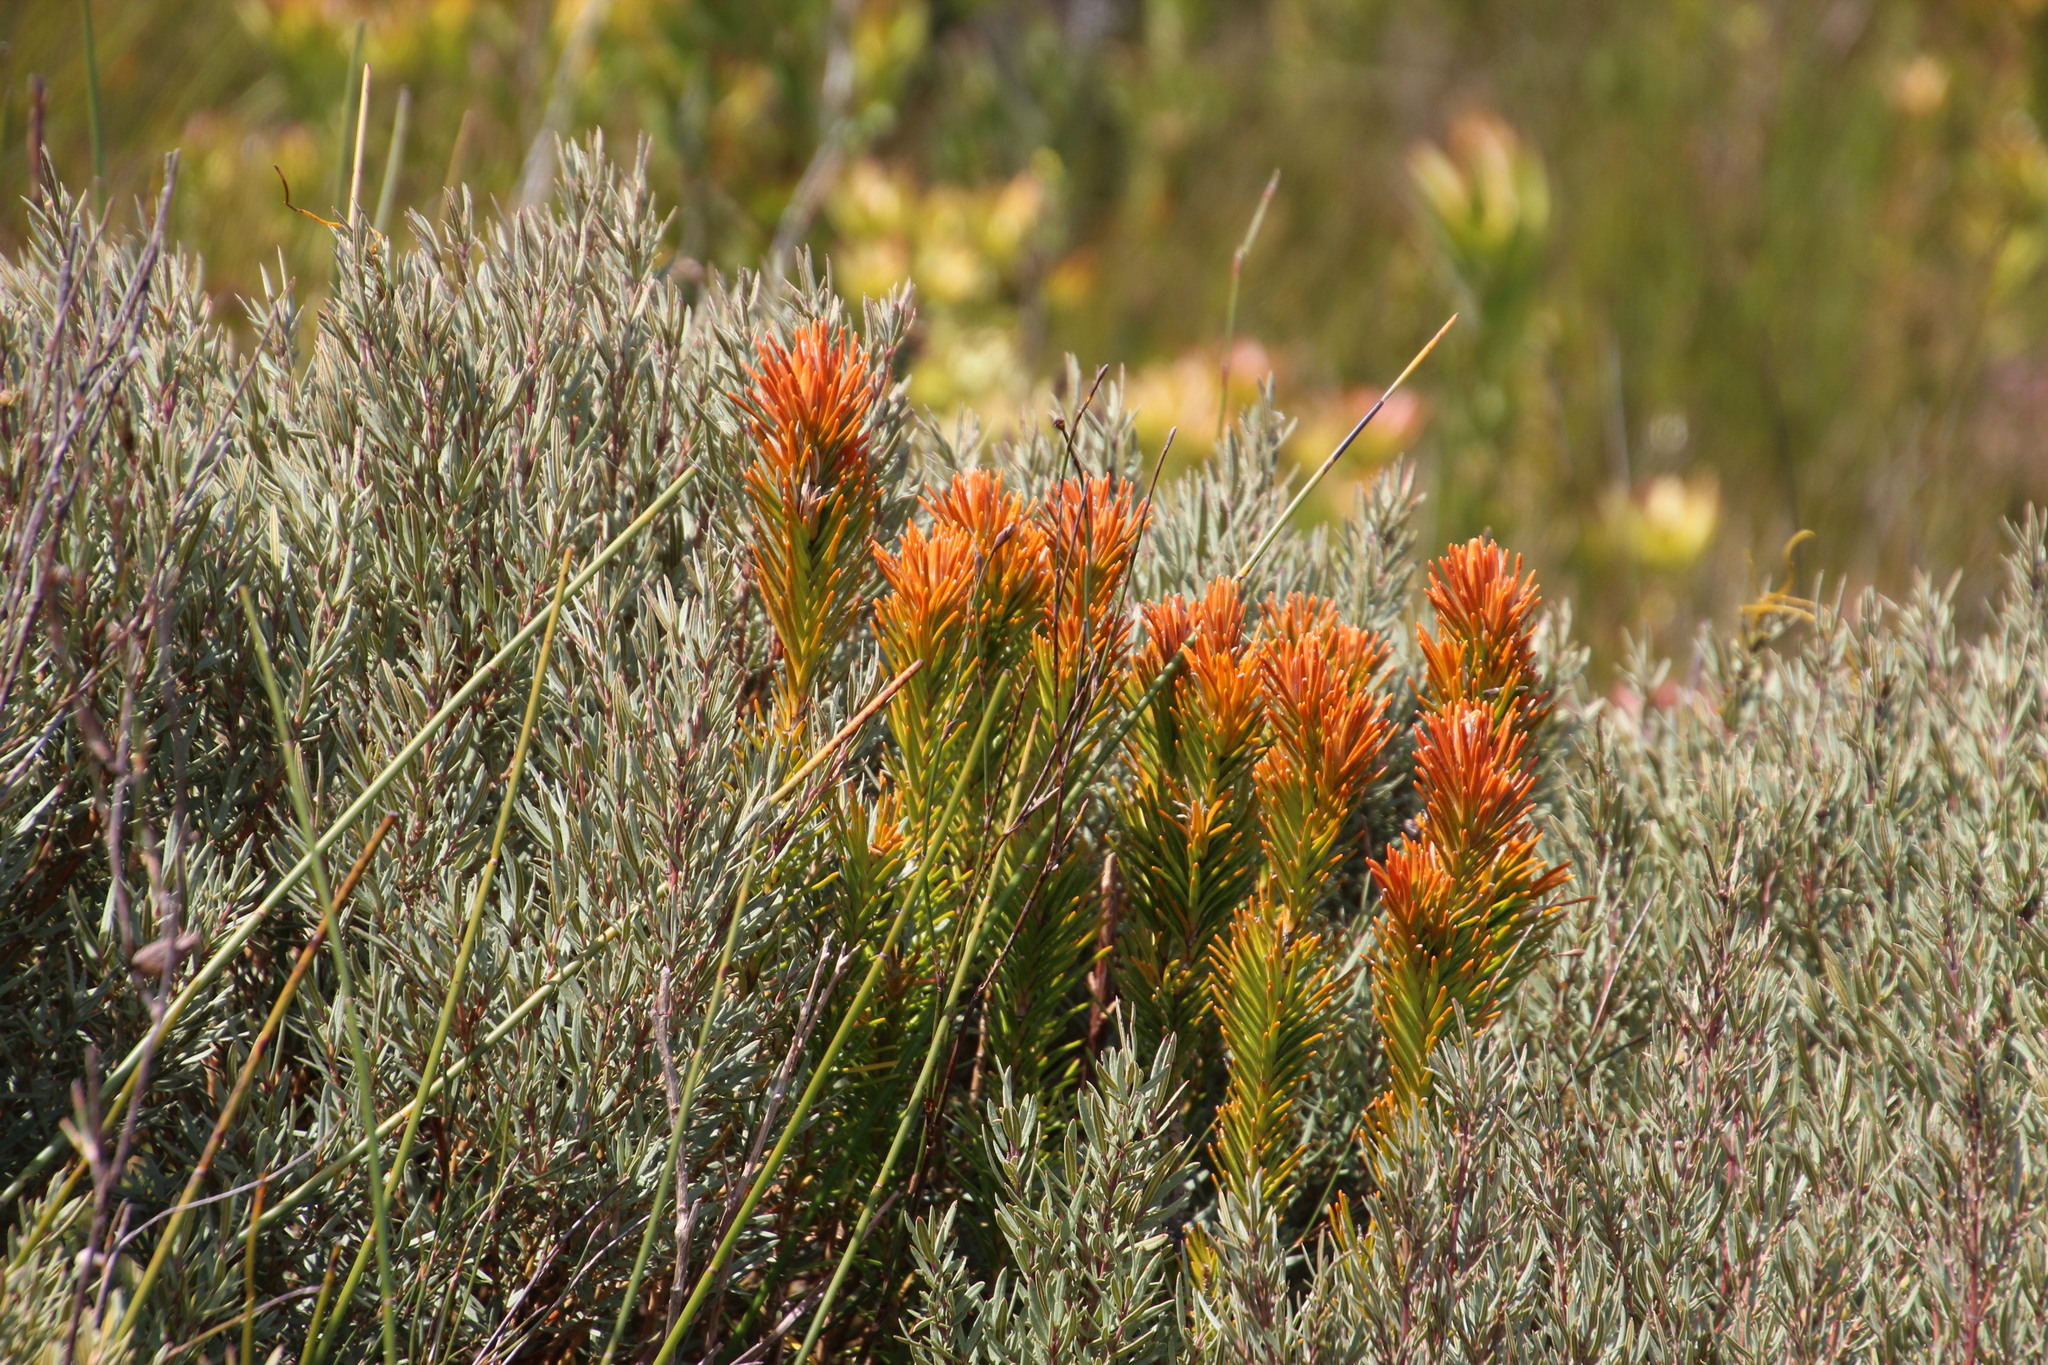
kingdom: Plantae
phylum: Tracheophyta
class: Magnoliopsida
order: Lamiales
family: Stilbaceae
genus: Retzia
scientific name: Retzia capensis
